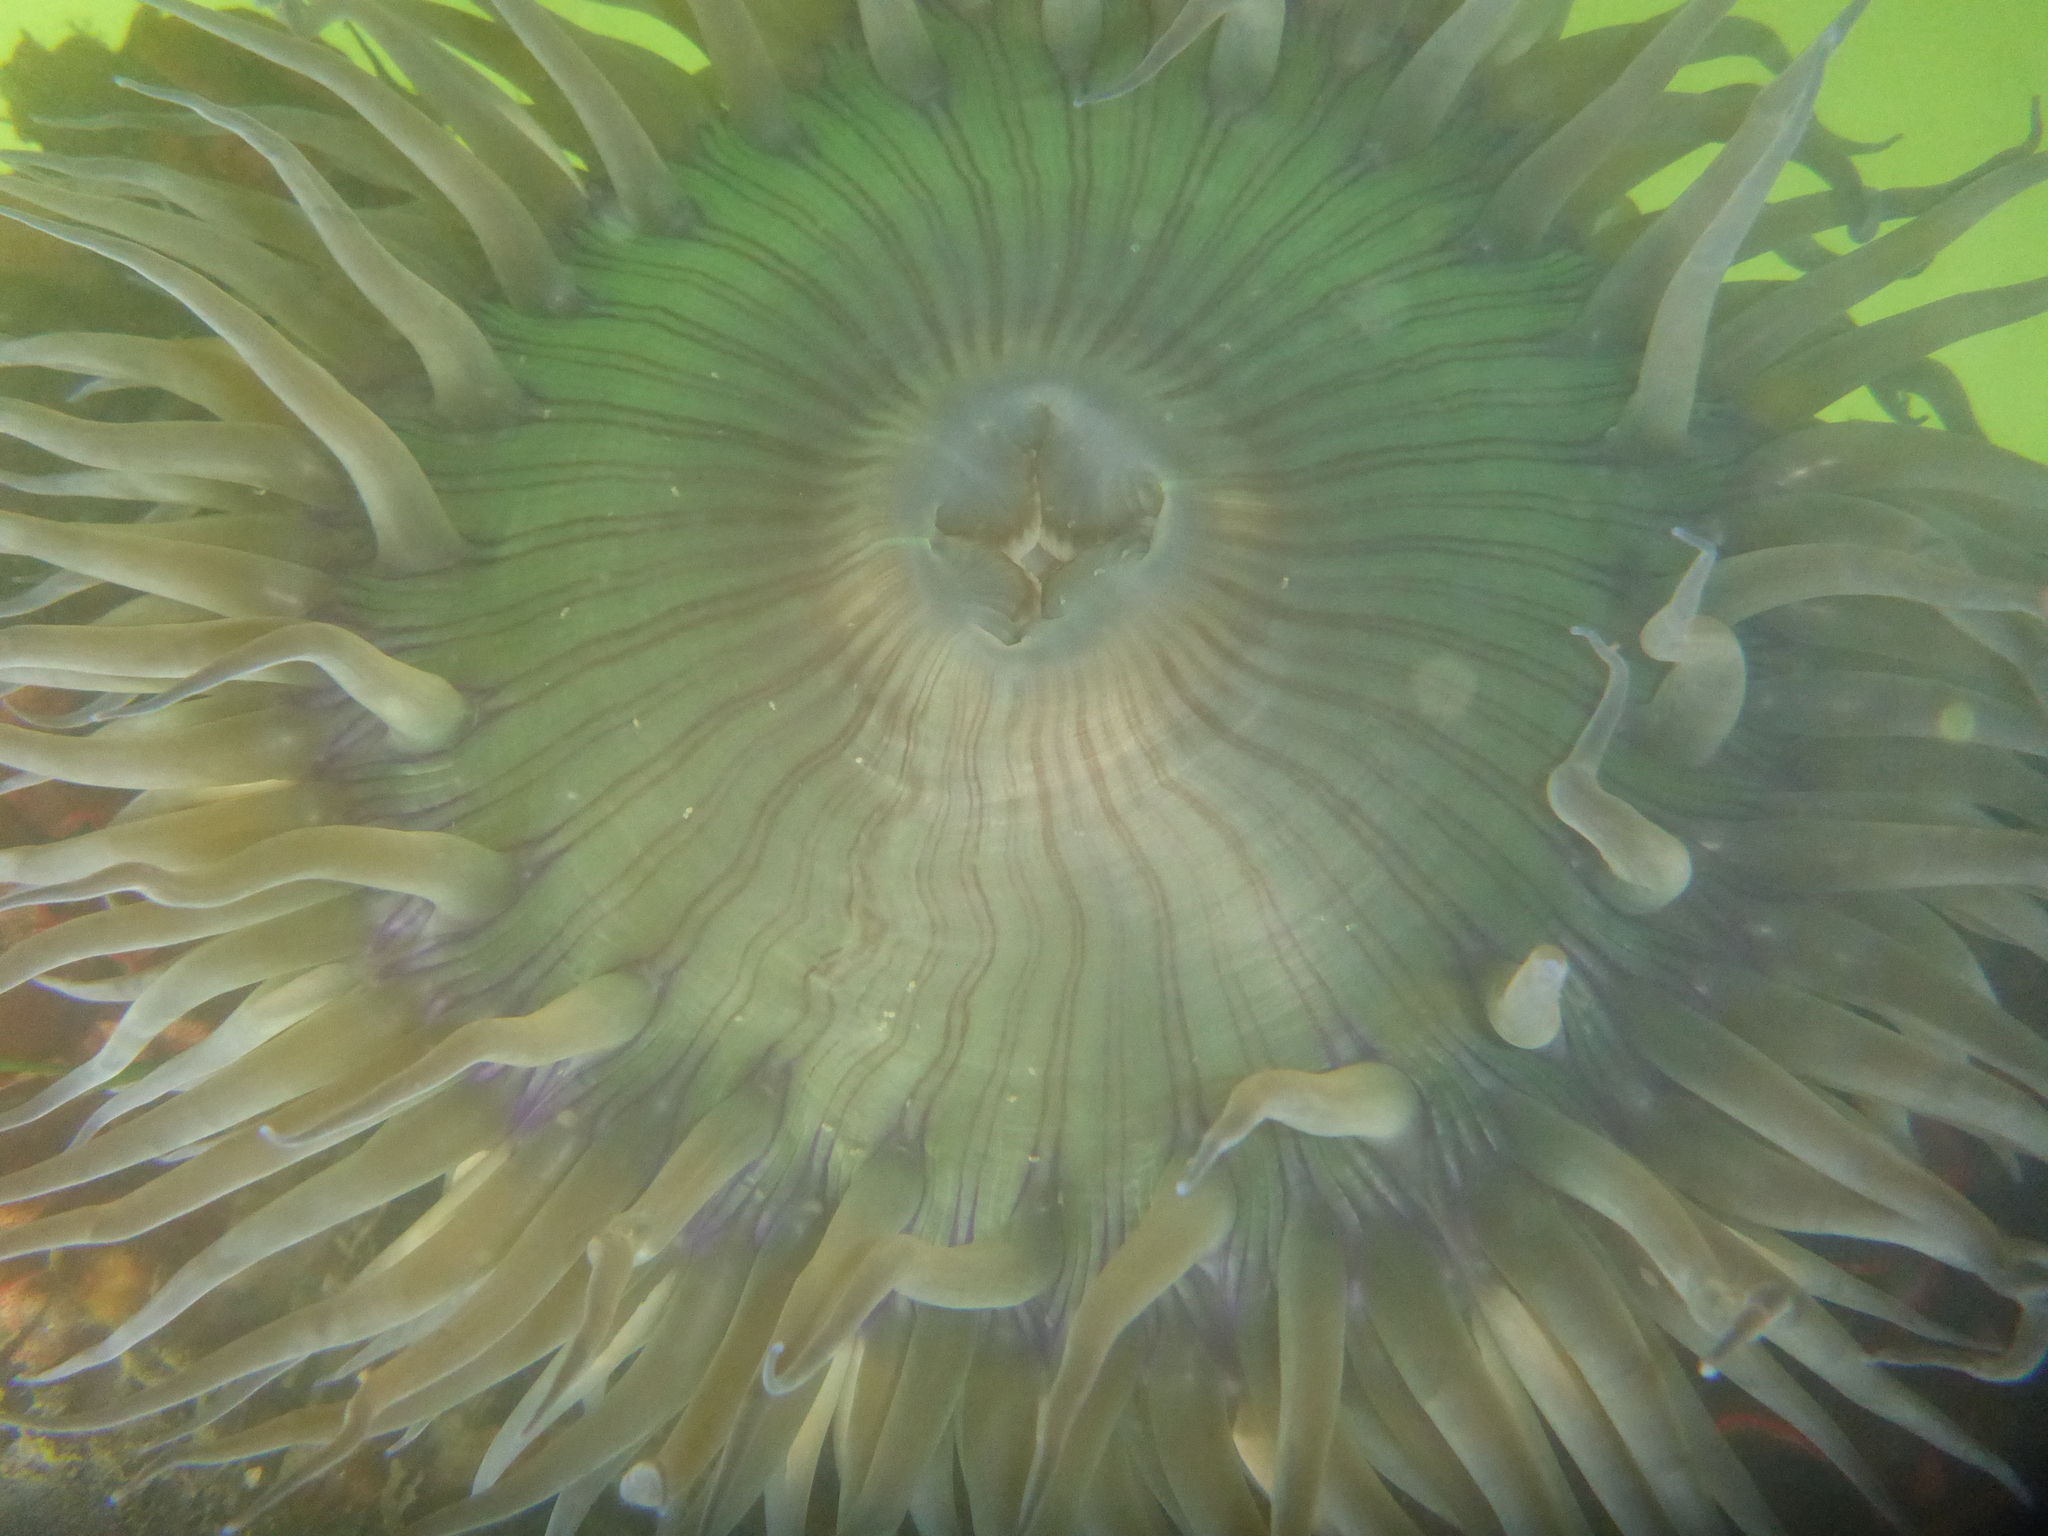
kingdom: Animalia
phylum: Cnidaria
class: Anthozoa
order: Actiniaria
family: Actiniidae
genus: Anthopleura
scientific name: Anthopleura sola
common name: Sun anemone
